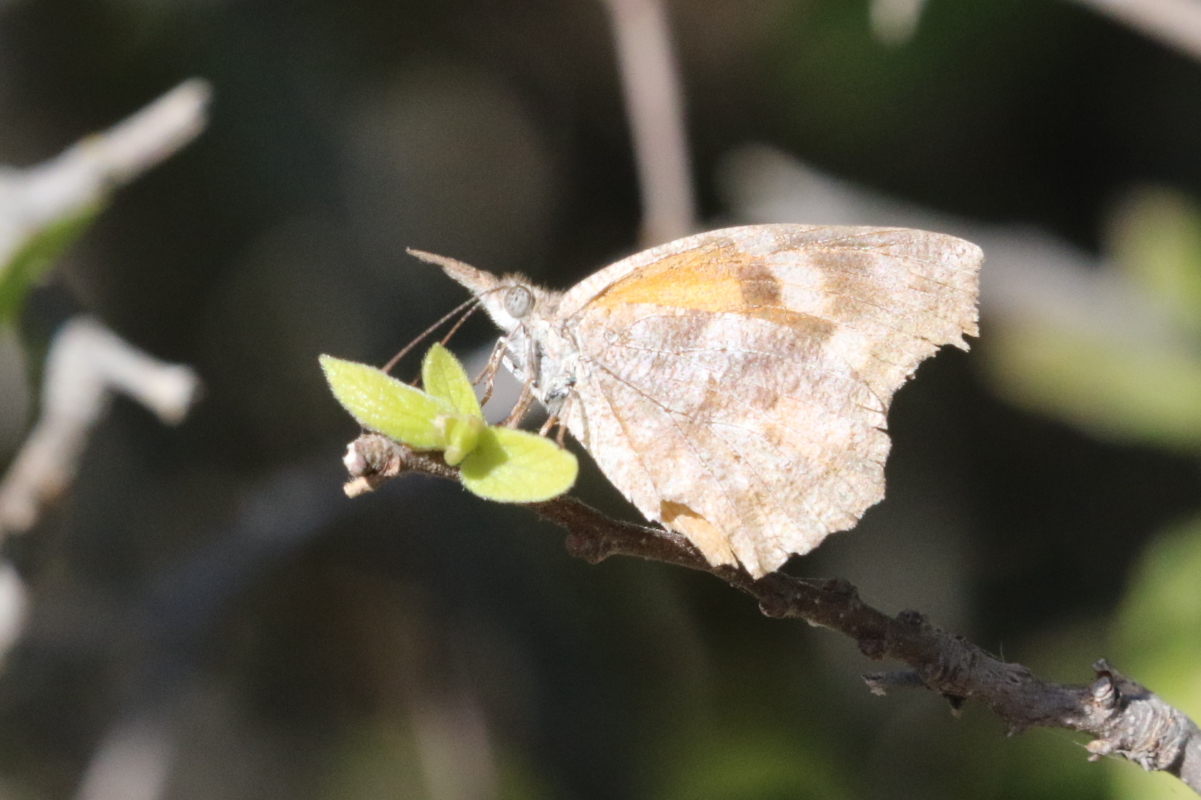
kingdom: Animalia
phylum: Arthropoda
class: Insecta
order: Lepidoptera
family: Nymphalidae
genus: Libytheana
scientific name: Libytheana carinenta
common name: American snout
